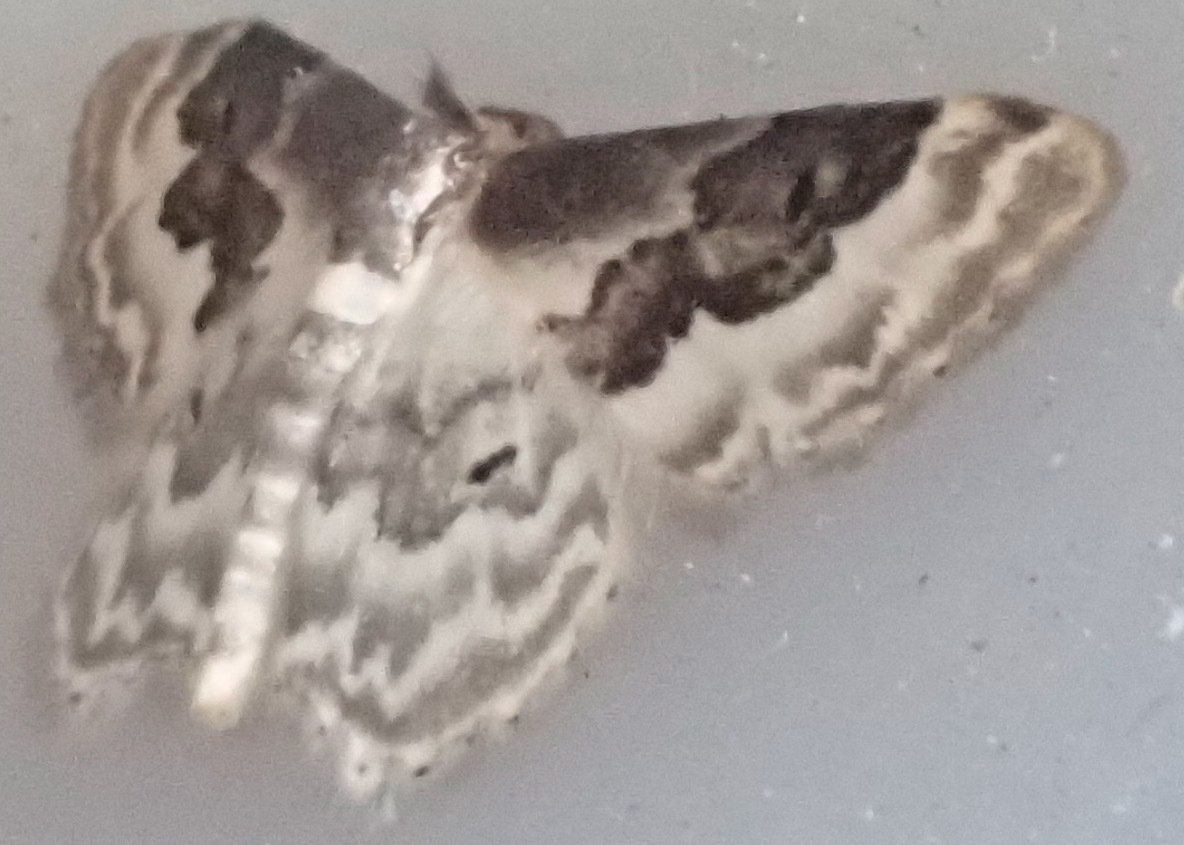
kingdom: Animalia
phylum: Arthropoda
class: Insecta
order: Lepidoptera
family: Geometridae
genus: Idaea
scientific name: Idaea rusticata
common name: Least carpet
